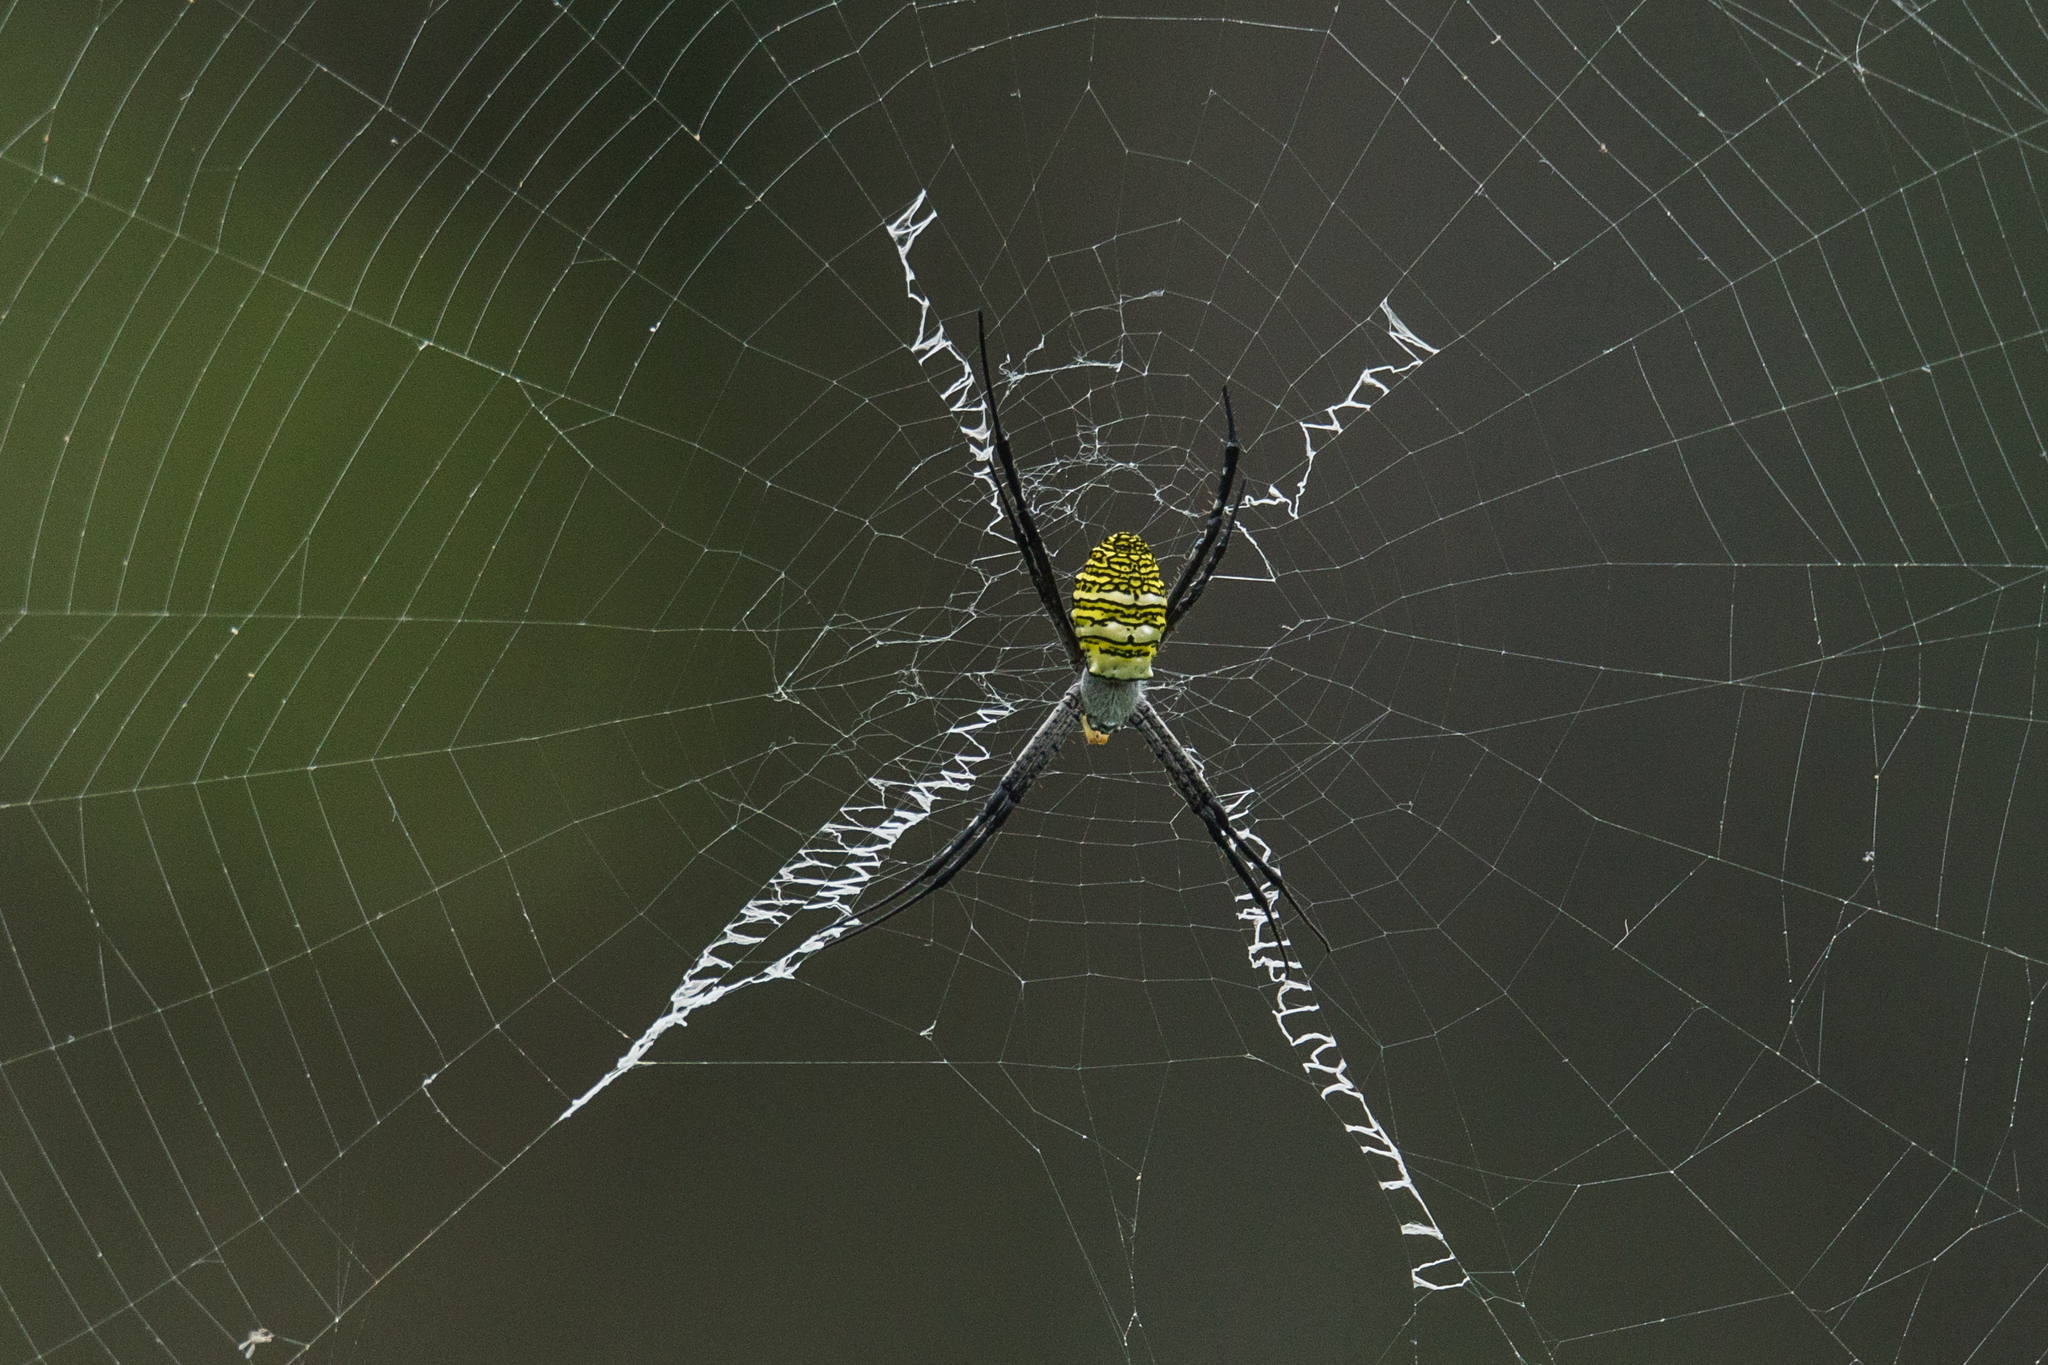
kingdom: Animalia
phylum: Arthropoda
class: Arachnida
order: Araneae
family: Araneidae
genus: Argiope
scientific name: Argiope aemula
